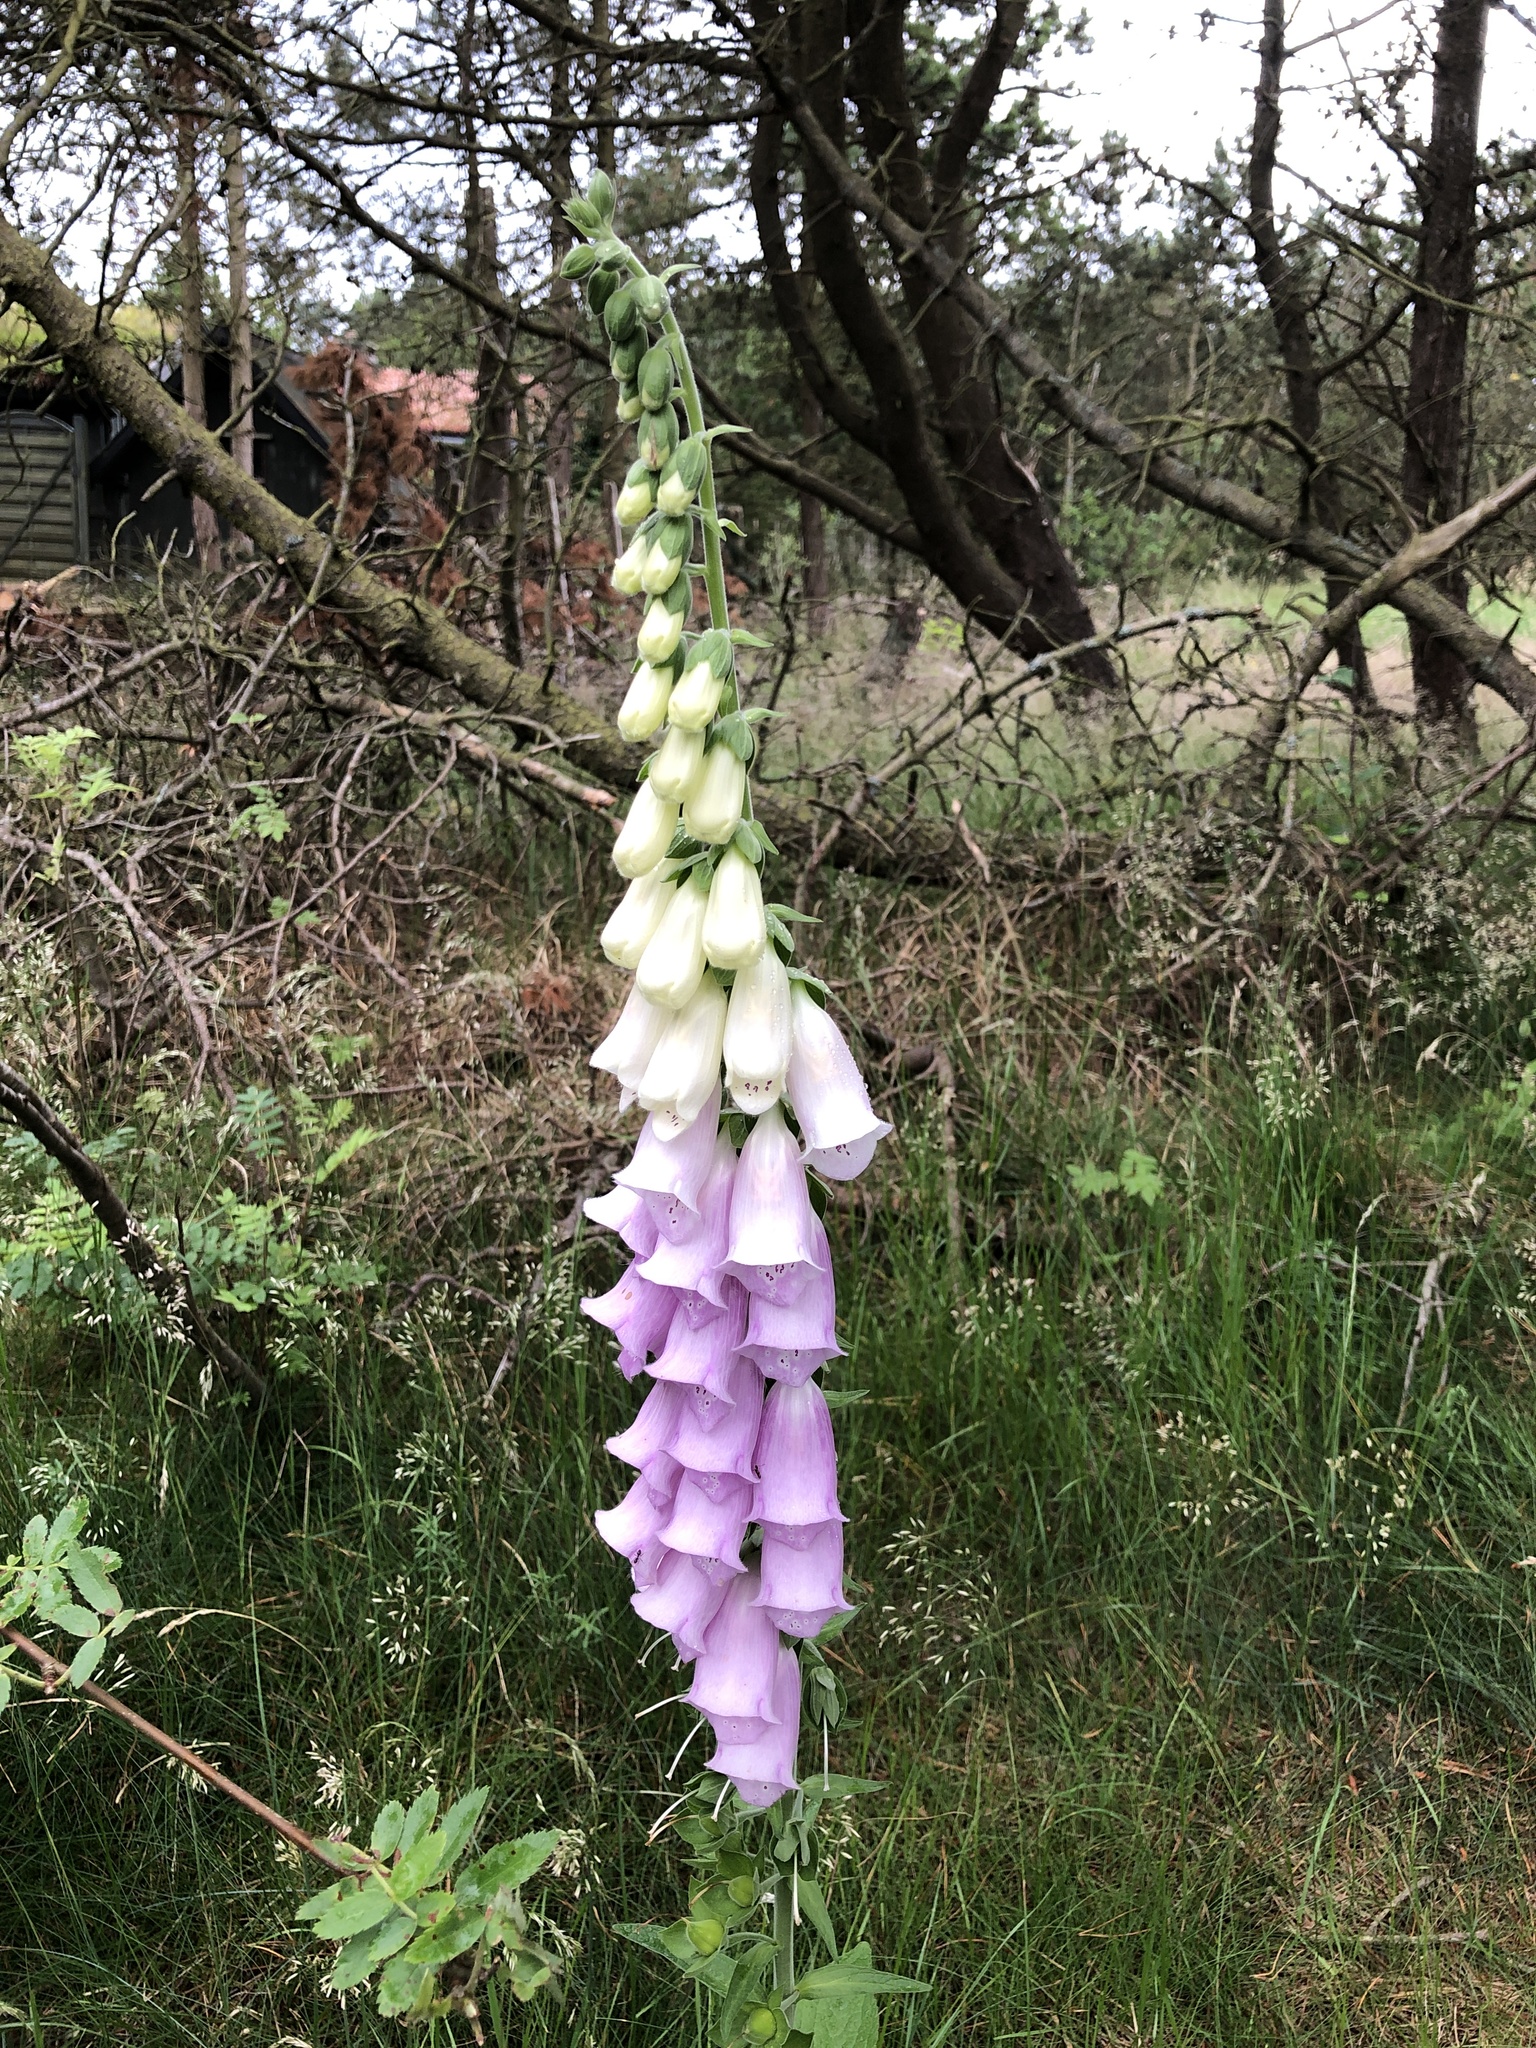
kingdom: Plantae
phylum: Tracheophyta
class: Magnoliopsida
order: Lamiales
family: Plantaginaceae
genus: Digitalis
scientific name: Digitalis purpurea
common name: Foxglove
